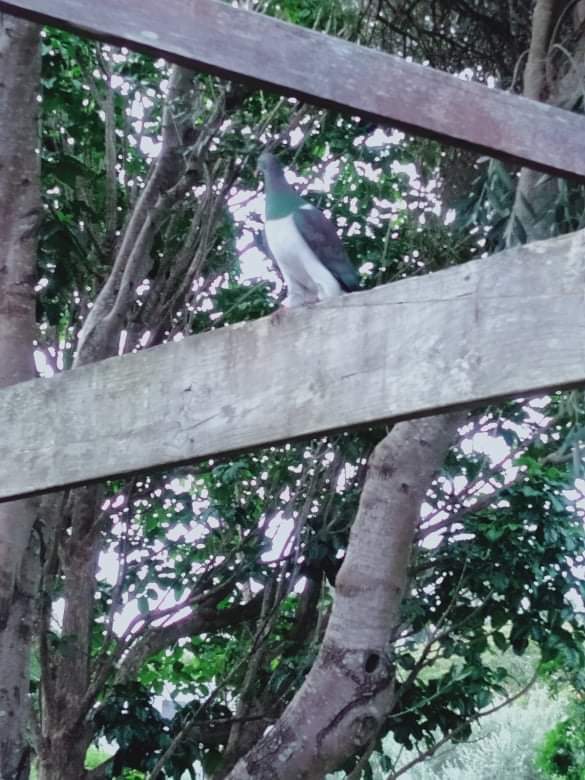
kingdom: Animalia
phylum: Chordata
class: Aves
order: Columbiformes
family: Columbidae
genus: Hemiphaga
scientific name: Hemiphaga novaeseelandiae
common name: New zealand pigeon
